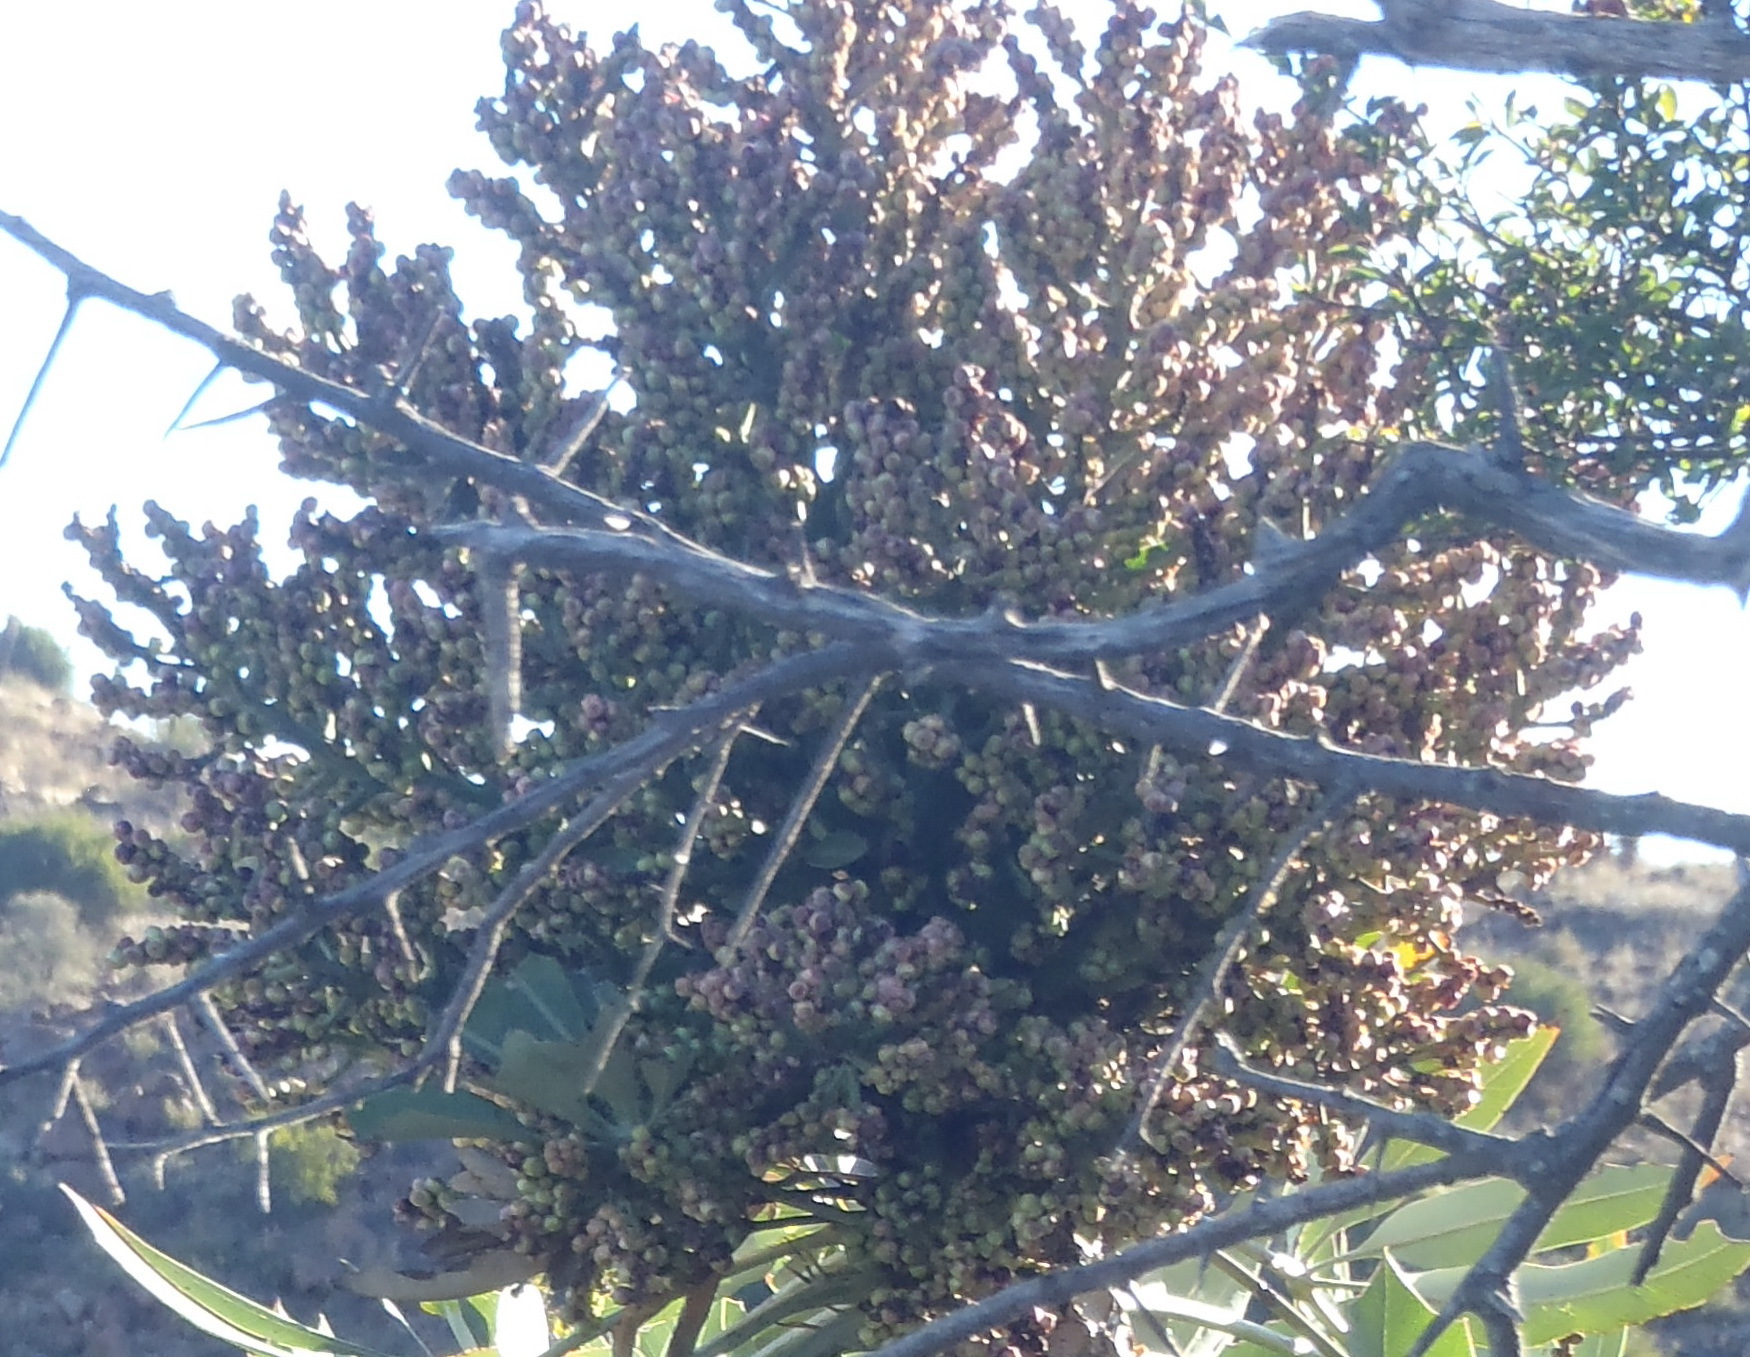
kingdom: Plantae
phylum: Tracheophyta
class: Magnoliopsida
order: Apiales
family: Araliaceae
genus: Cussonia
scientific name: Cussonia paniculata
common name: Cabbagetree
